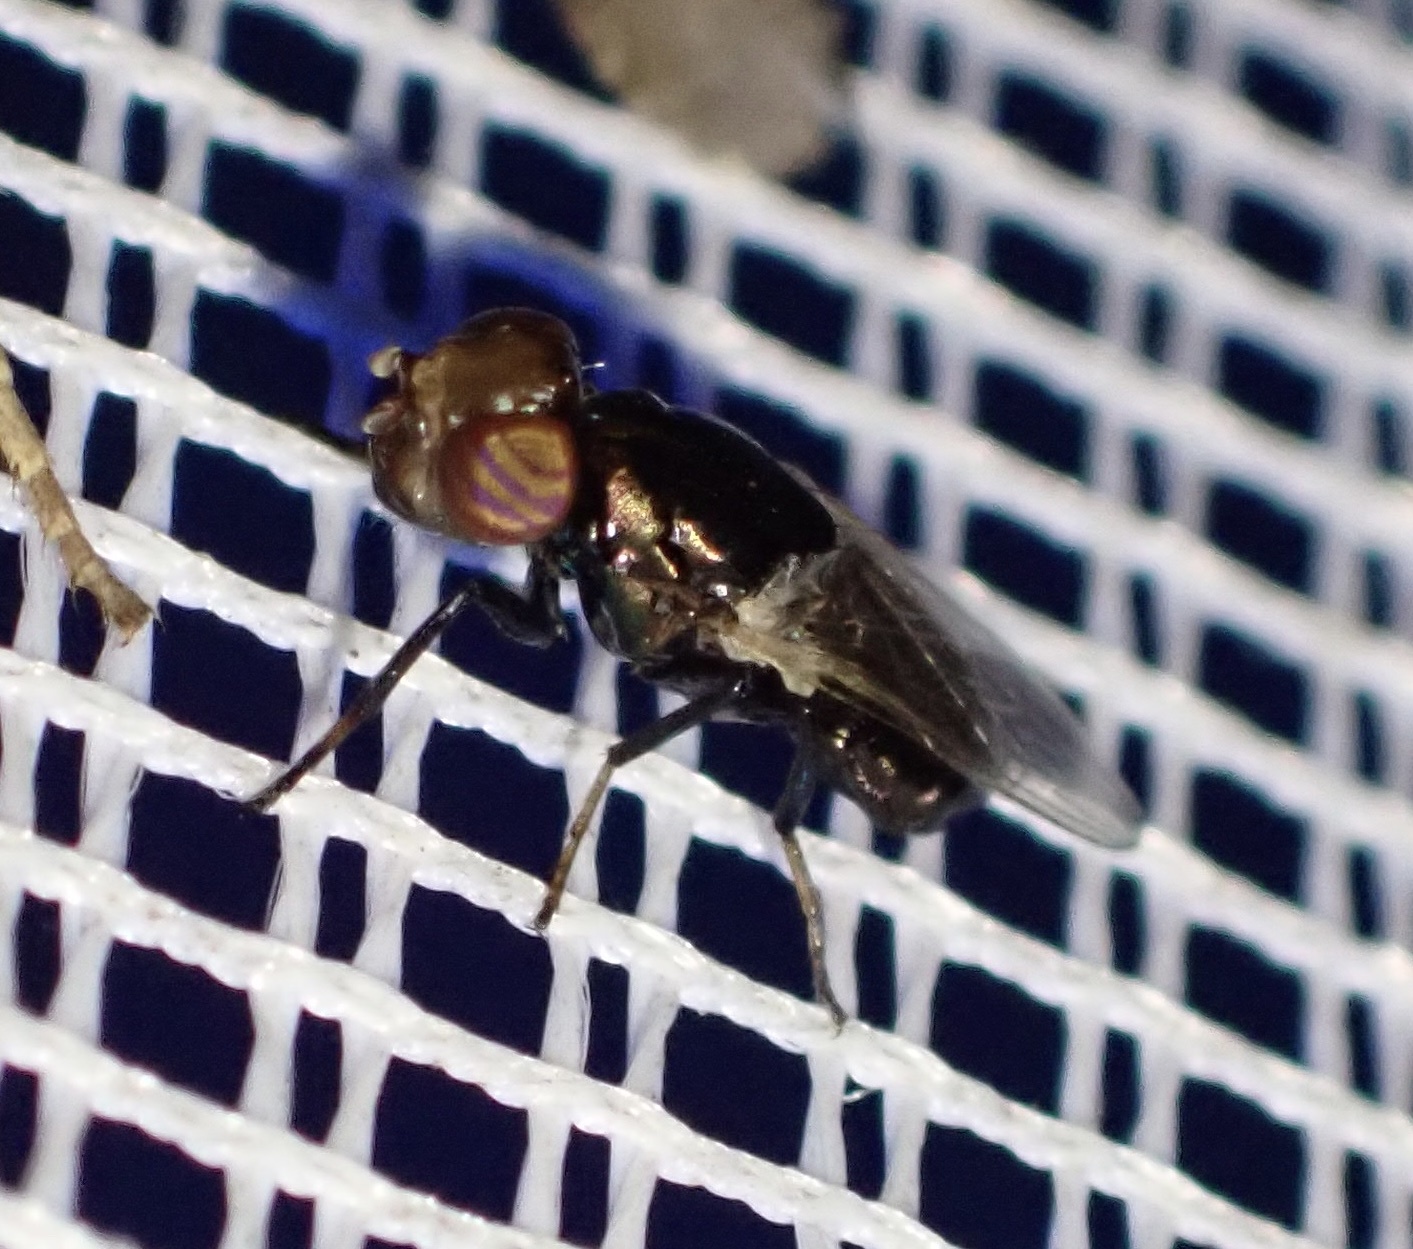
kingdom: Animalia
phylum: Arthropoda
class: Insecta
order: Diptera
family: Ulidiidae
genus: Physiphora
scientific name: Physiphora alceae
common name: Picture-winged fly
